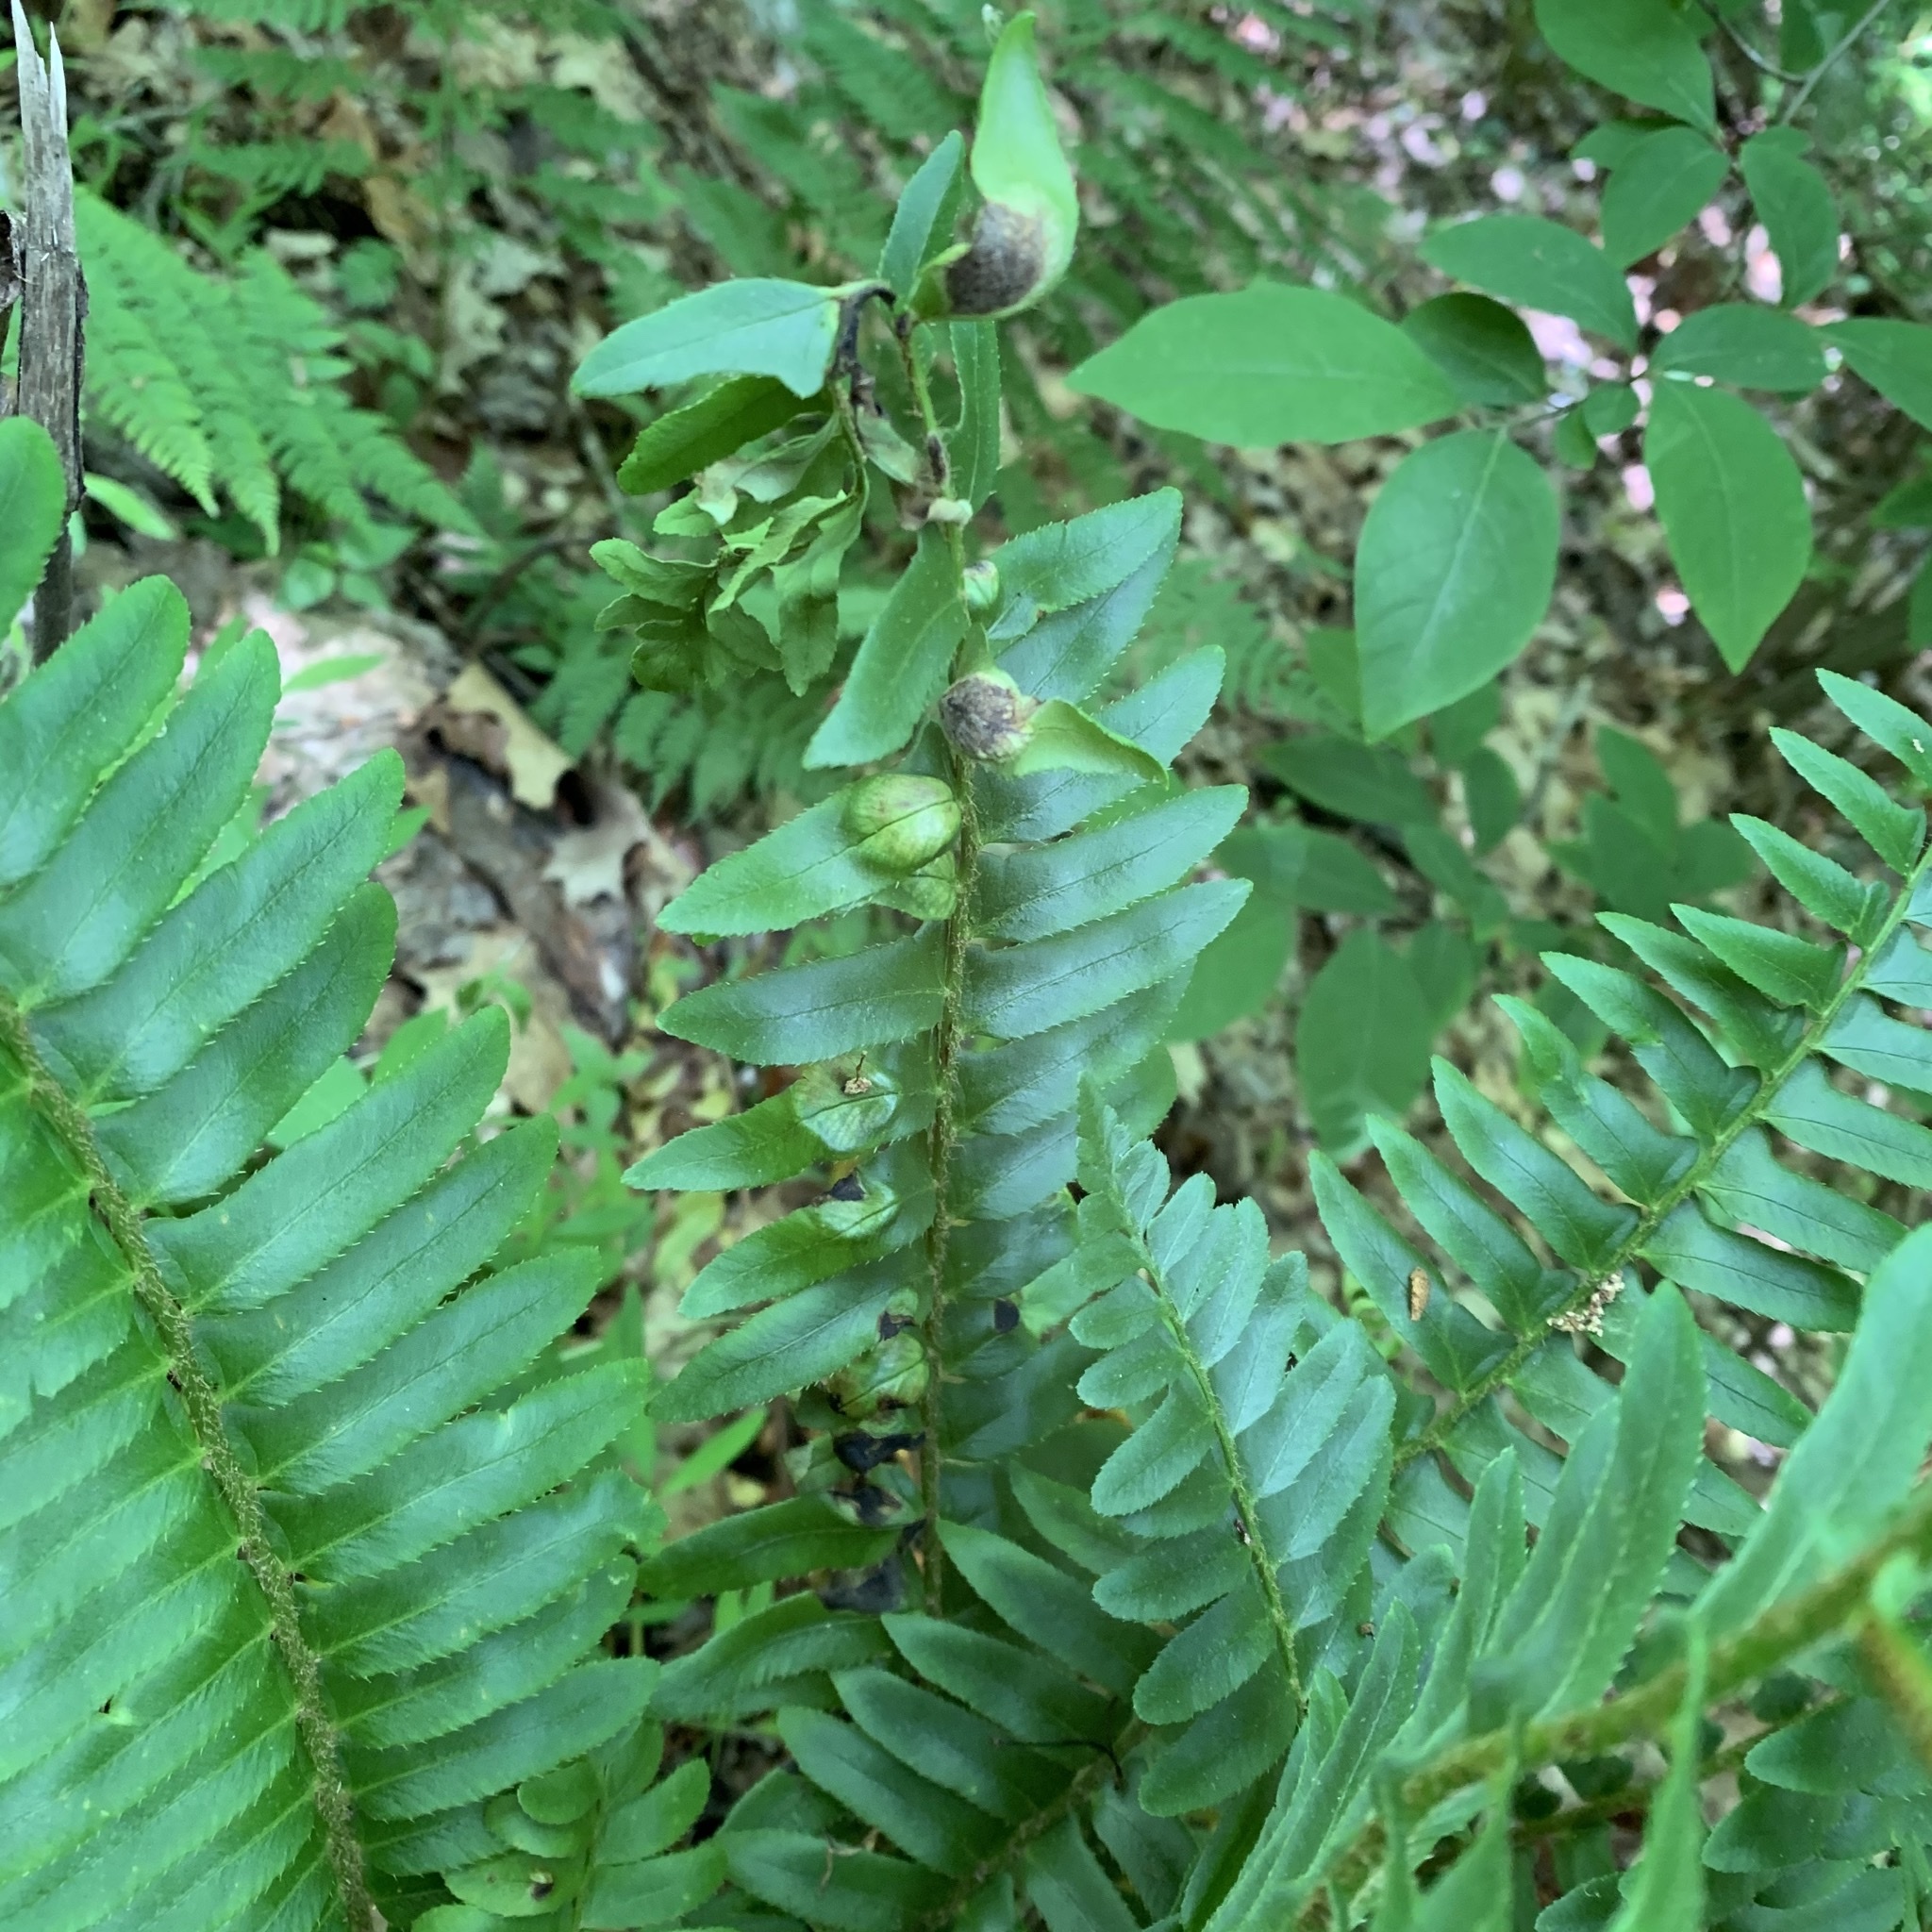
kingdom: Fungi
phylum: Ascomycota
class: Taphrinomycetes
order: Taphrinales
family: Taphrinaceae
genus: Taphrina
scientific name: Taphrina polystichi
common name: Christmas fern leaf curl
